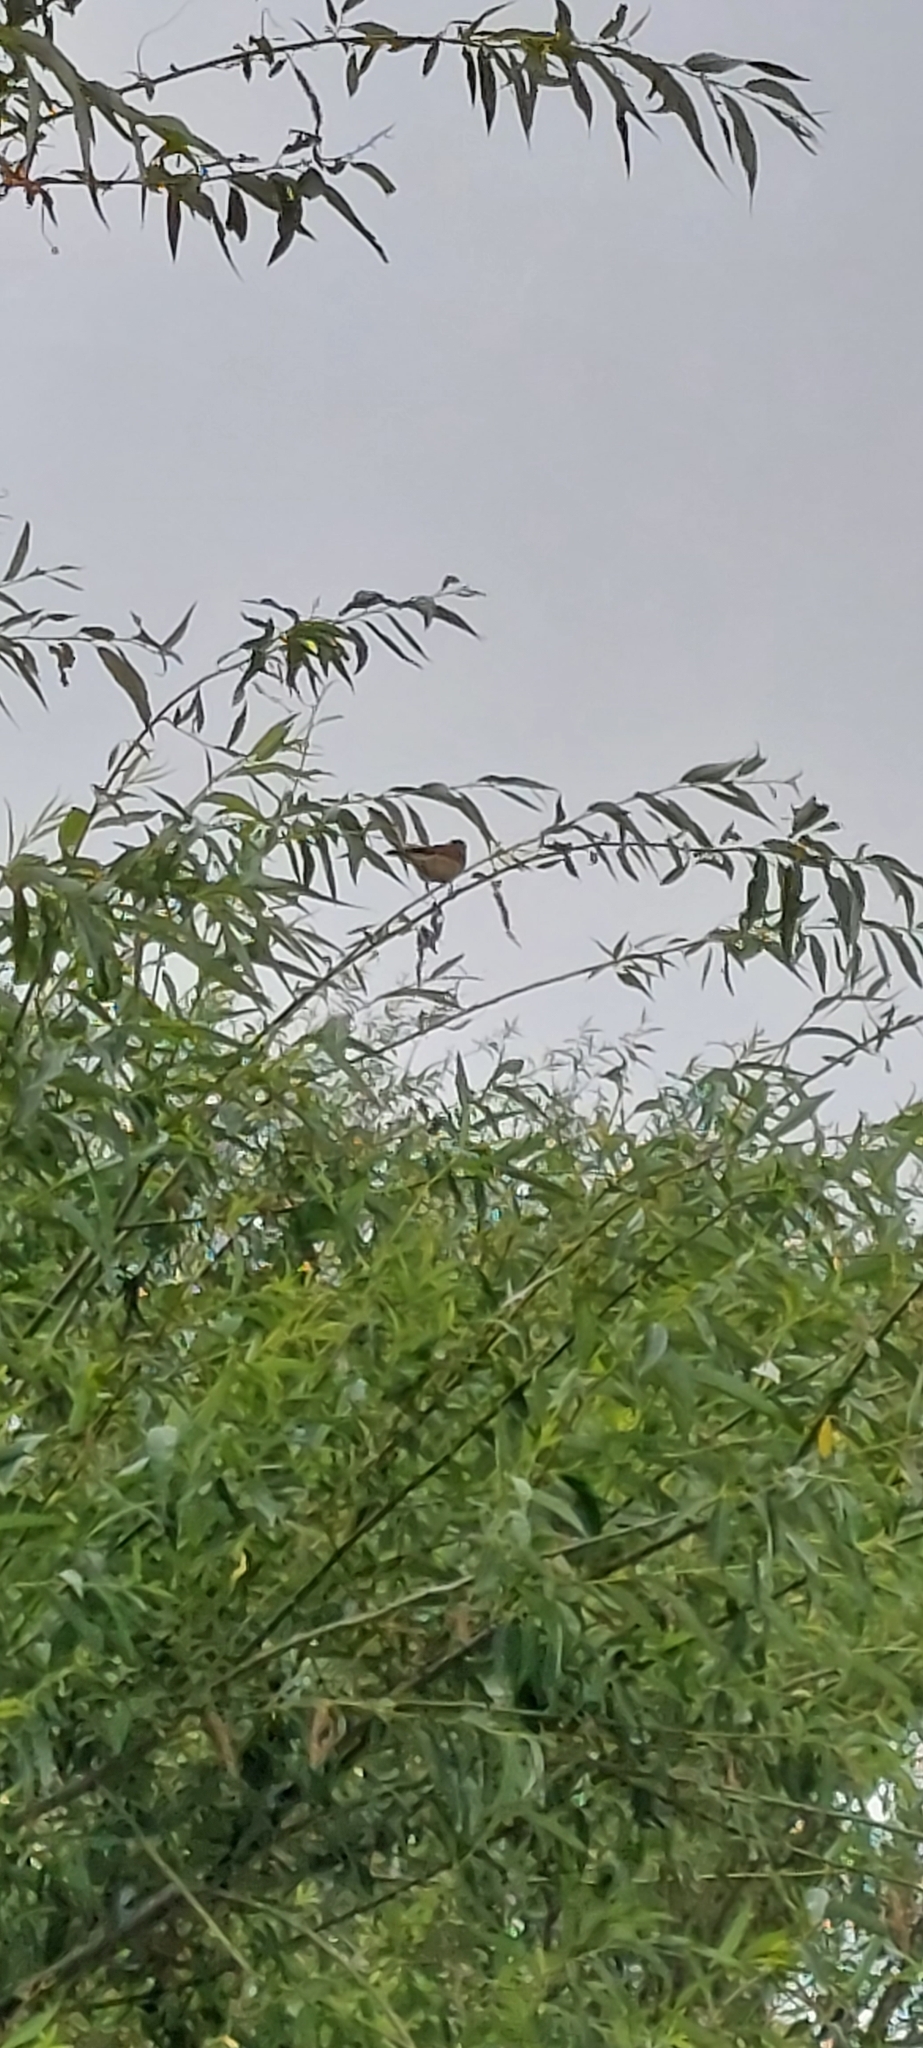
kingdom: Animalia
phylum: Chordata
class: Aves
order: Passeriformes
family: Tyrannidae
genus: Hymenops
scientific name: Hymenops perspicillatus
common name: Spectacled tyrant
